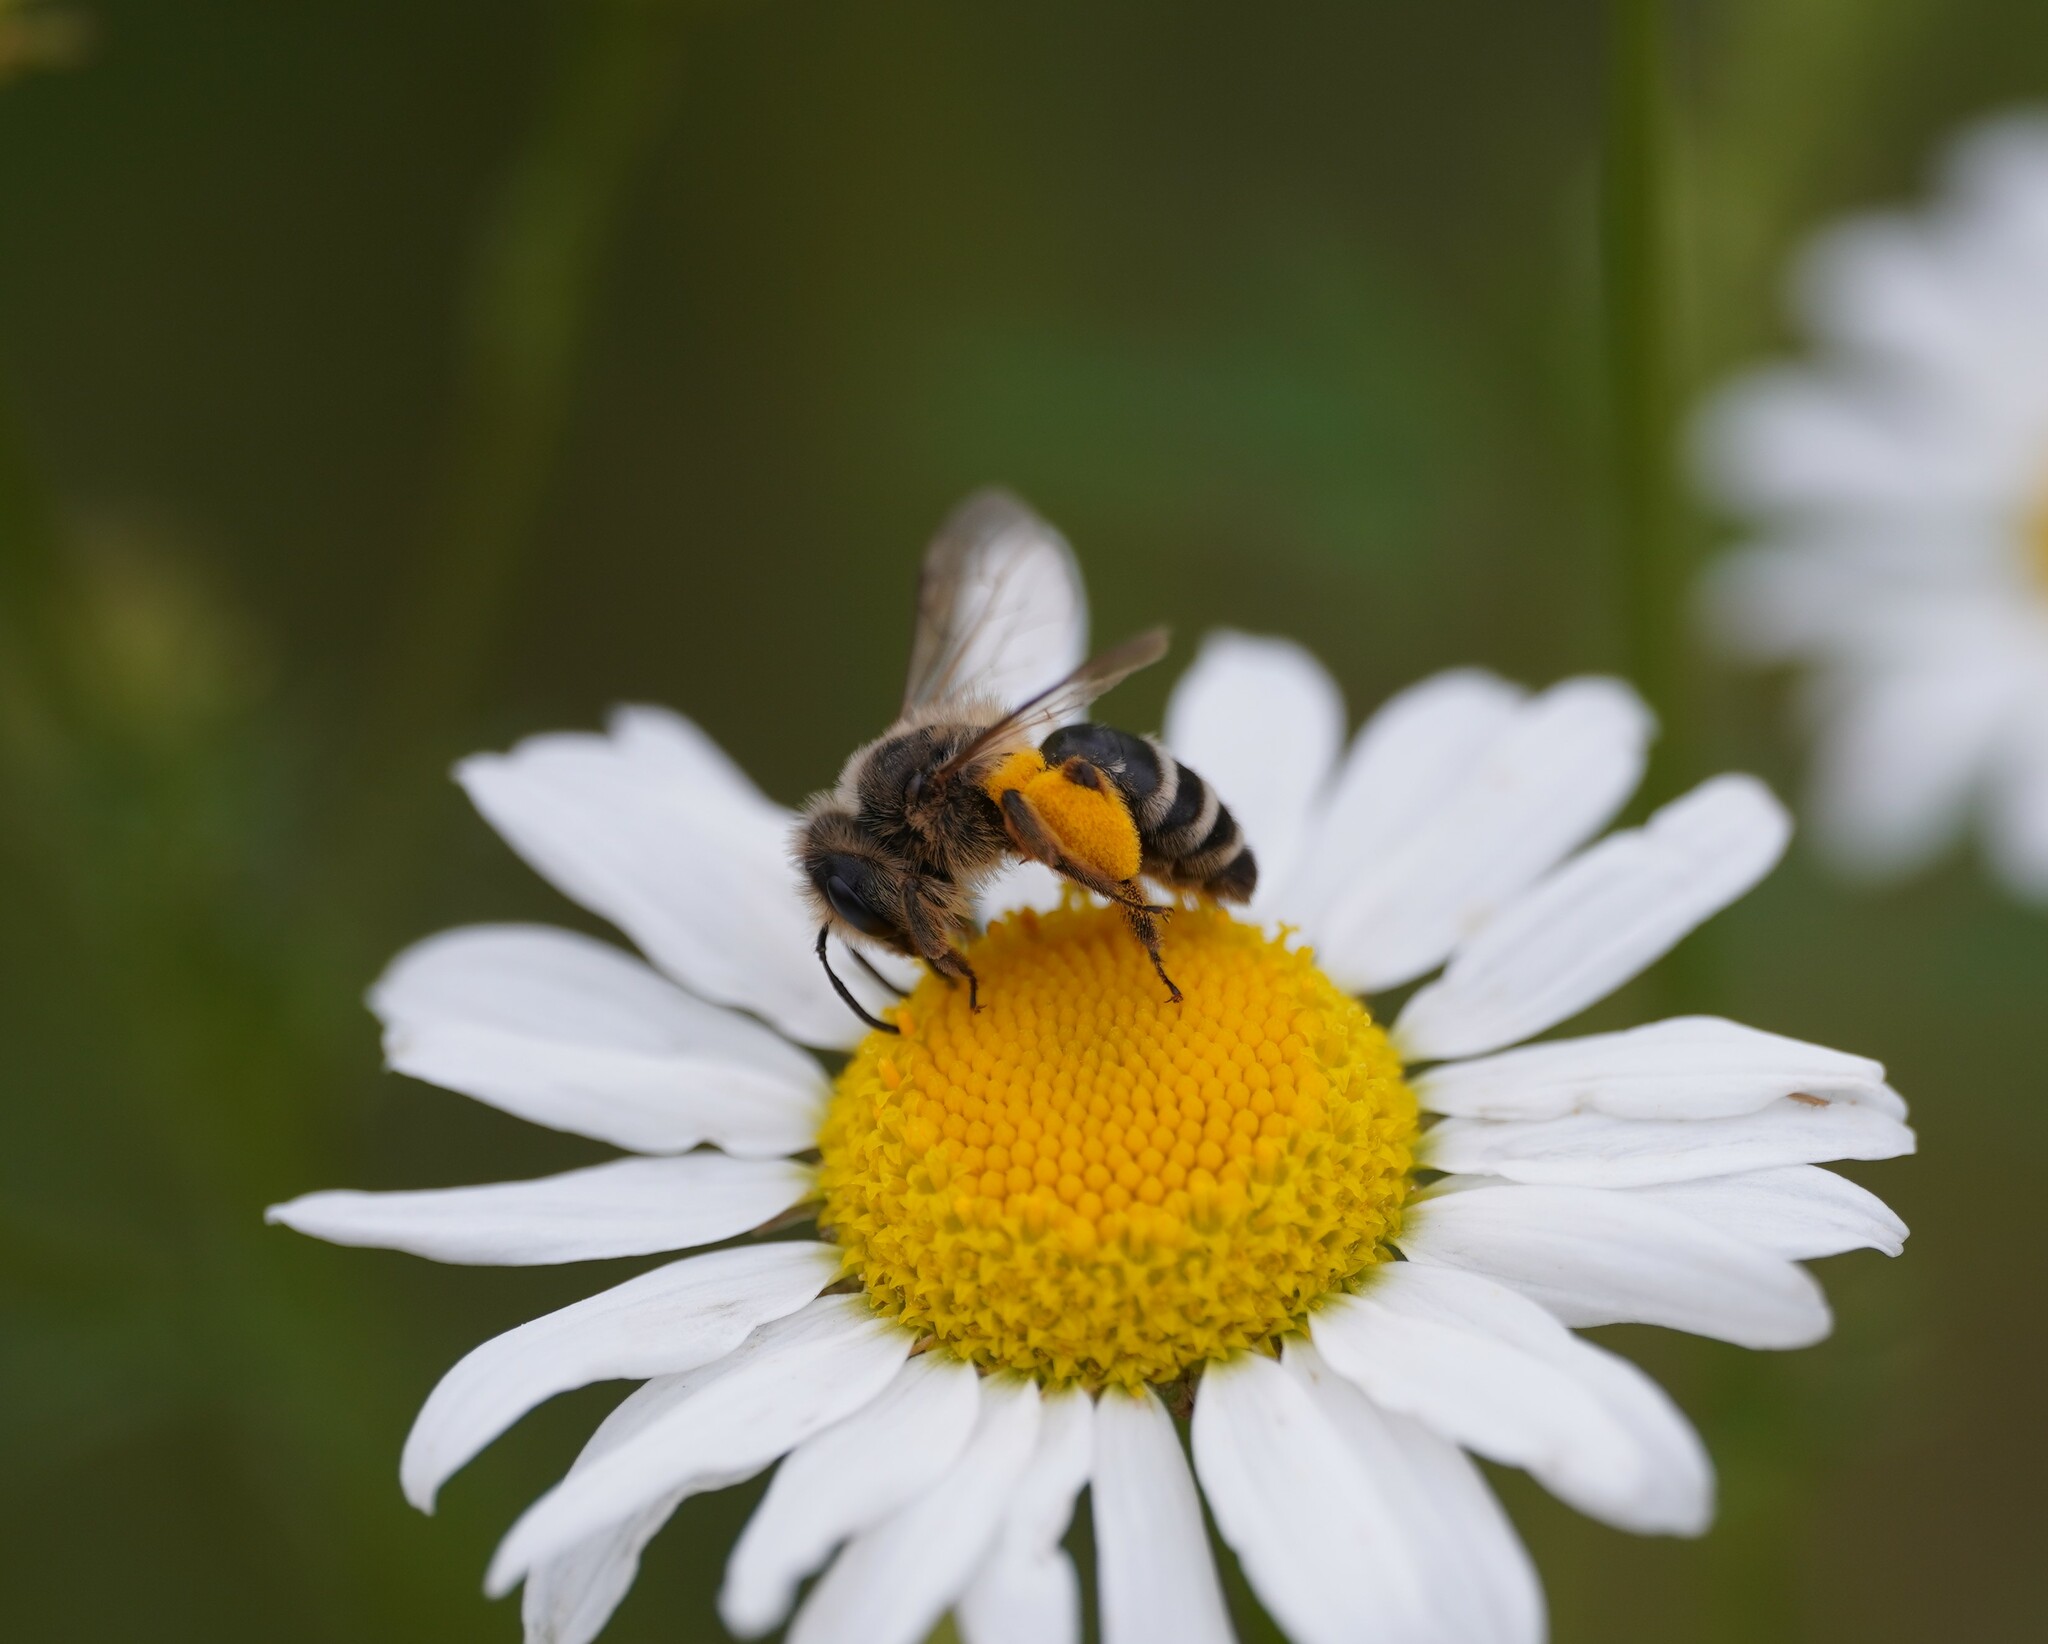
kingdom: Animalia
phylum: Arthropoda
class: Insecta
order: Hymenoptera
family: Andrenidae
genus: Andrena
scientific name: Andrena flavipes
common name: Yellow-legged mining bee
